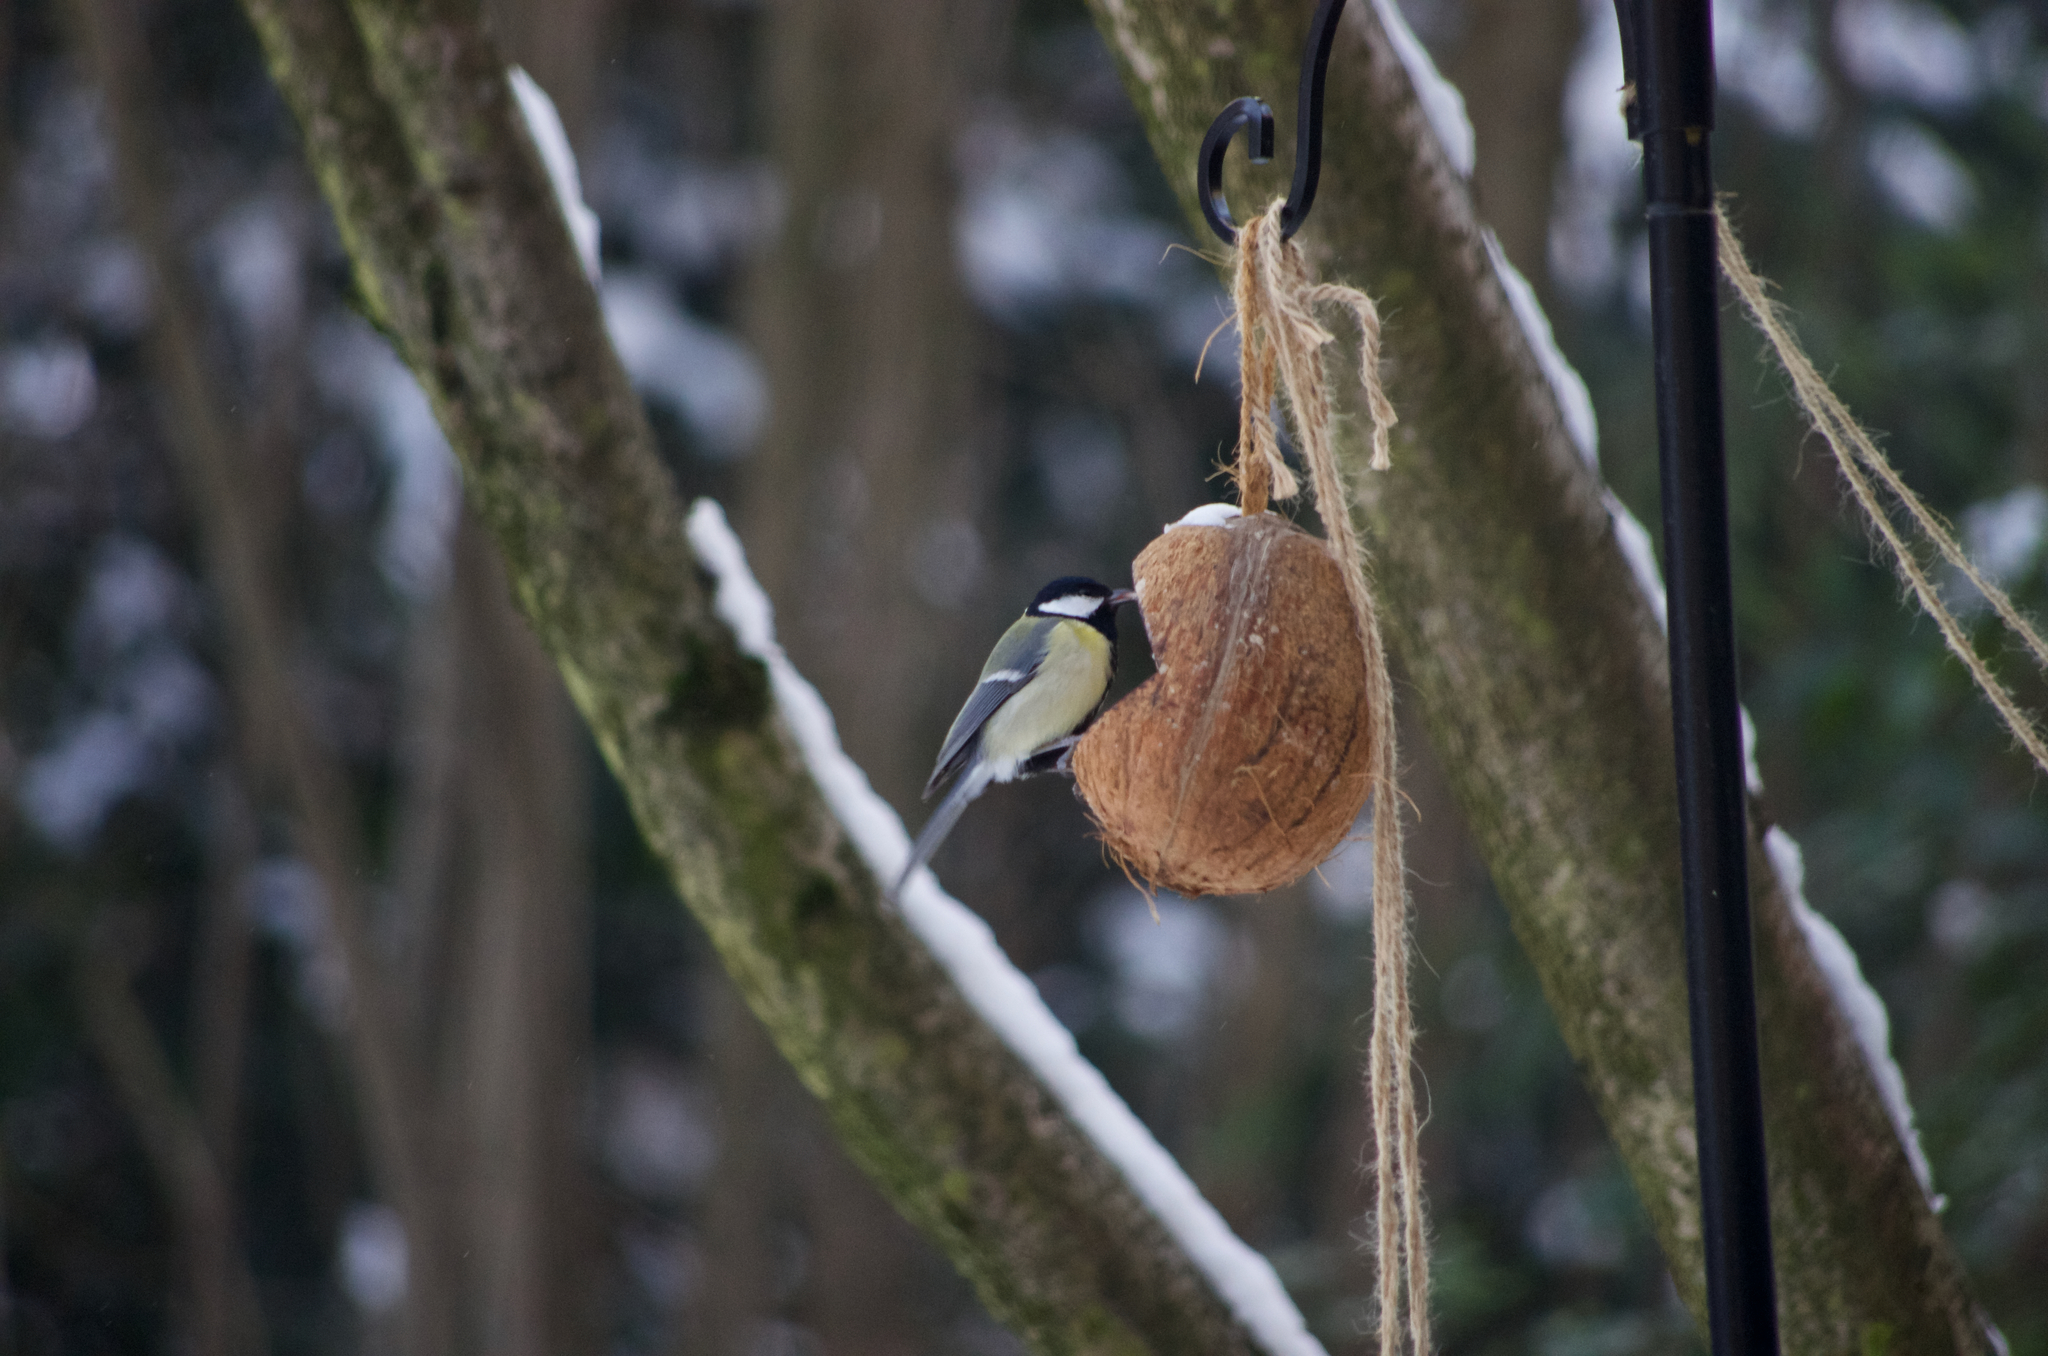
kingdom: Animalia
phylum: Chordata
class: Aves
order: Passeriformes
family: Paridae
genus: Parus
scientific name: Parus major
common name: Great tit
